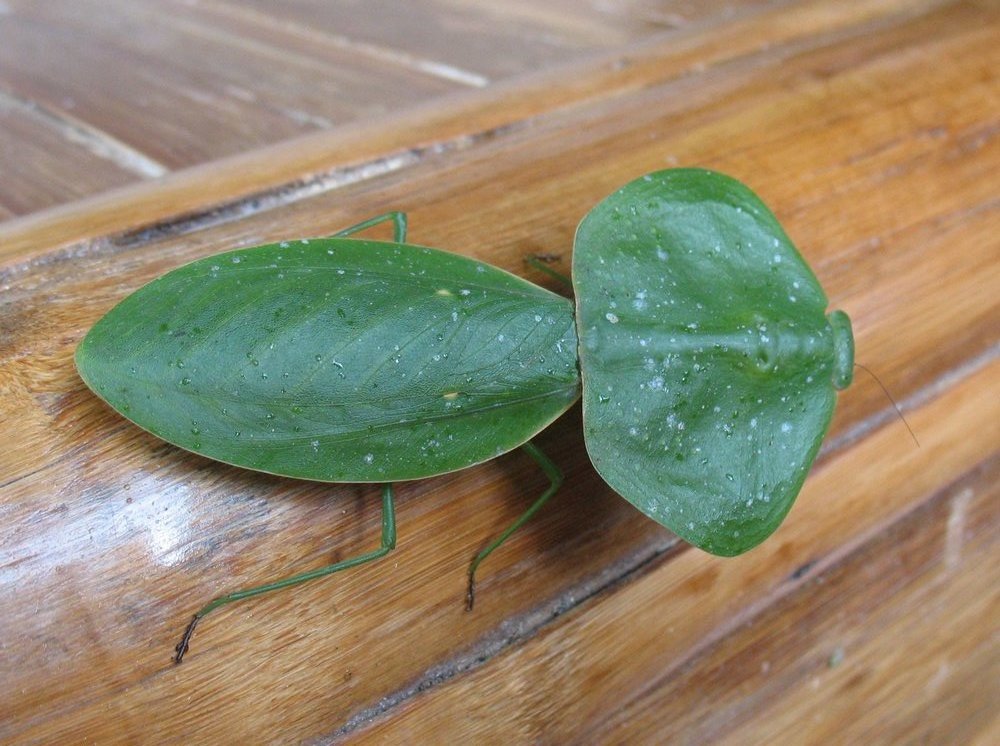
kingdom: Animalia
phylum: Arthropoda
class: Insecta
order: Mantodea
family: Mantidae
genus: Choeradodis
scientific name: Choeradodis rhombicollis
